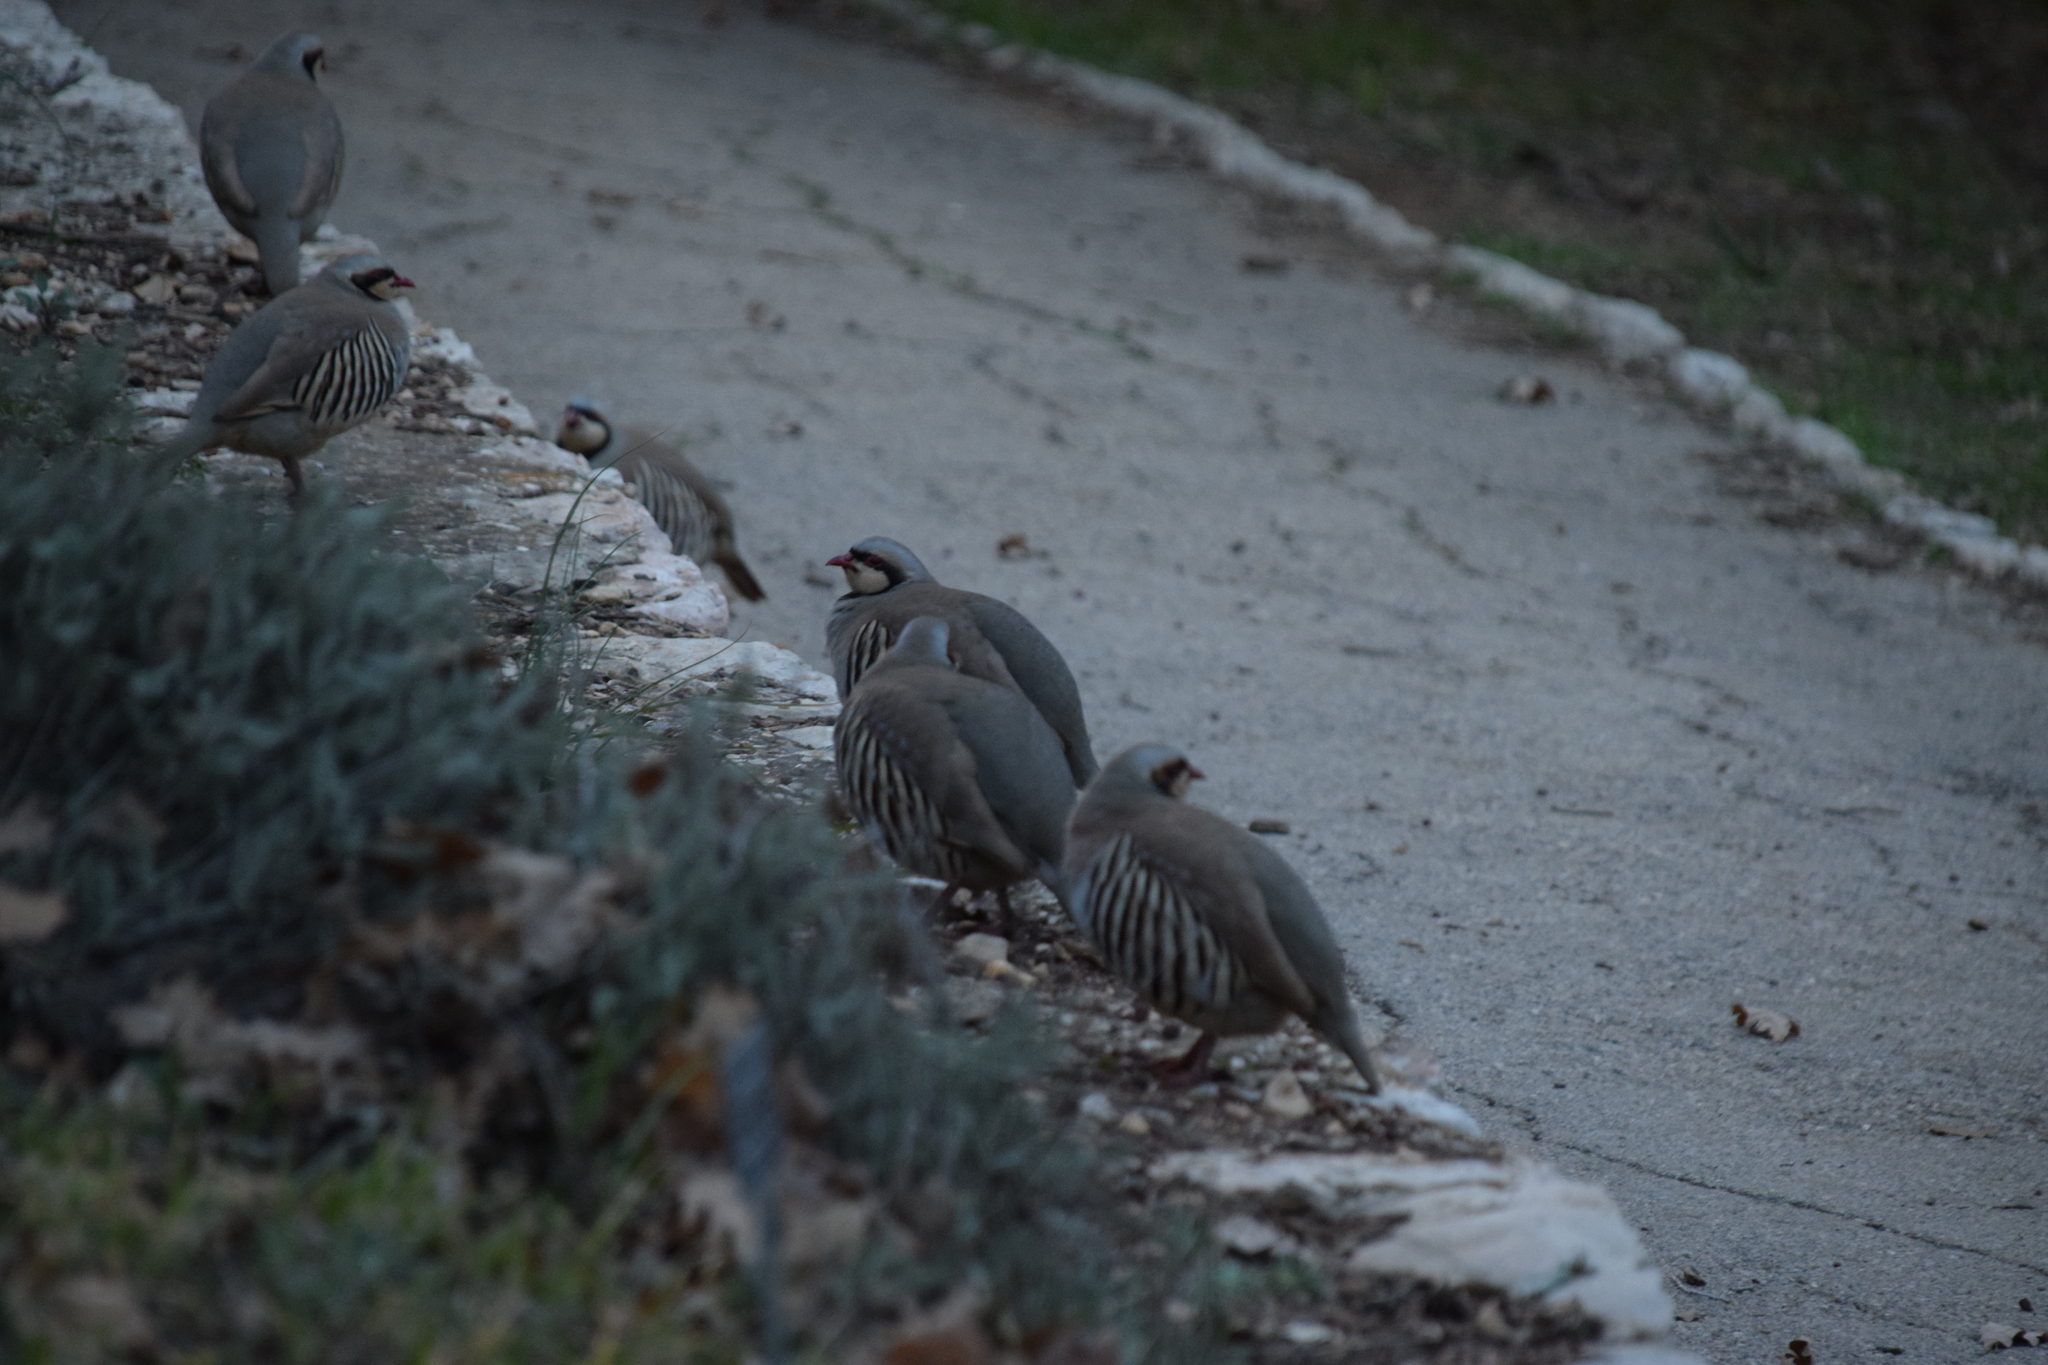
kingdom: Animalia
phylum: Chordata
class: Aves
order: Galliformes
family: Phasianidae
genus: Alectoris
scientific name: Alectoris chukar
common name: Chukar
